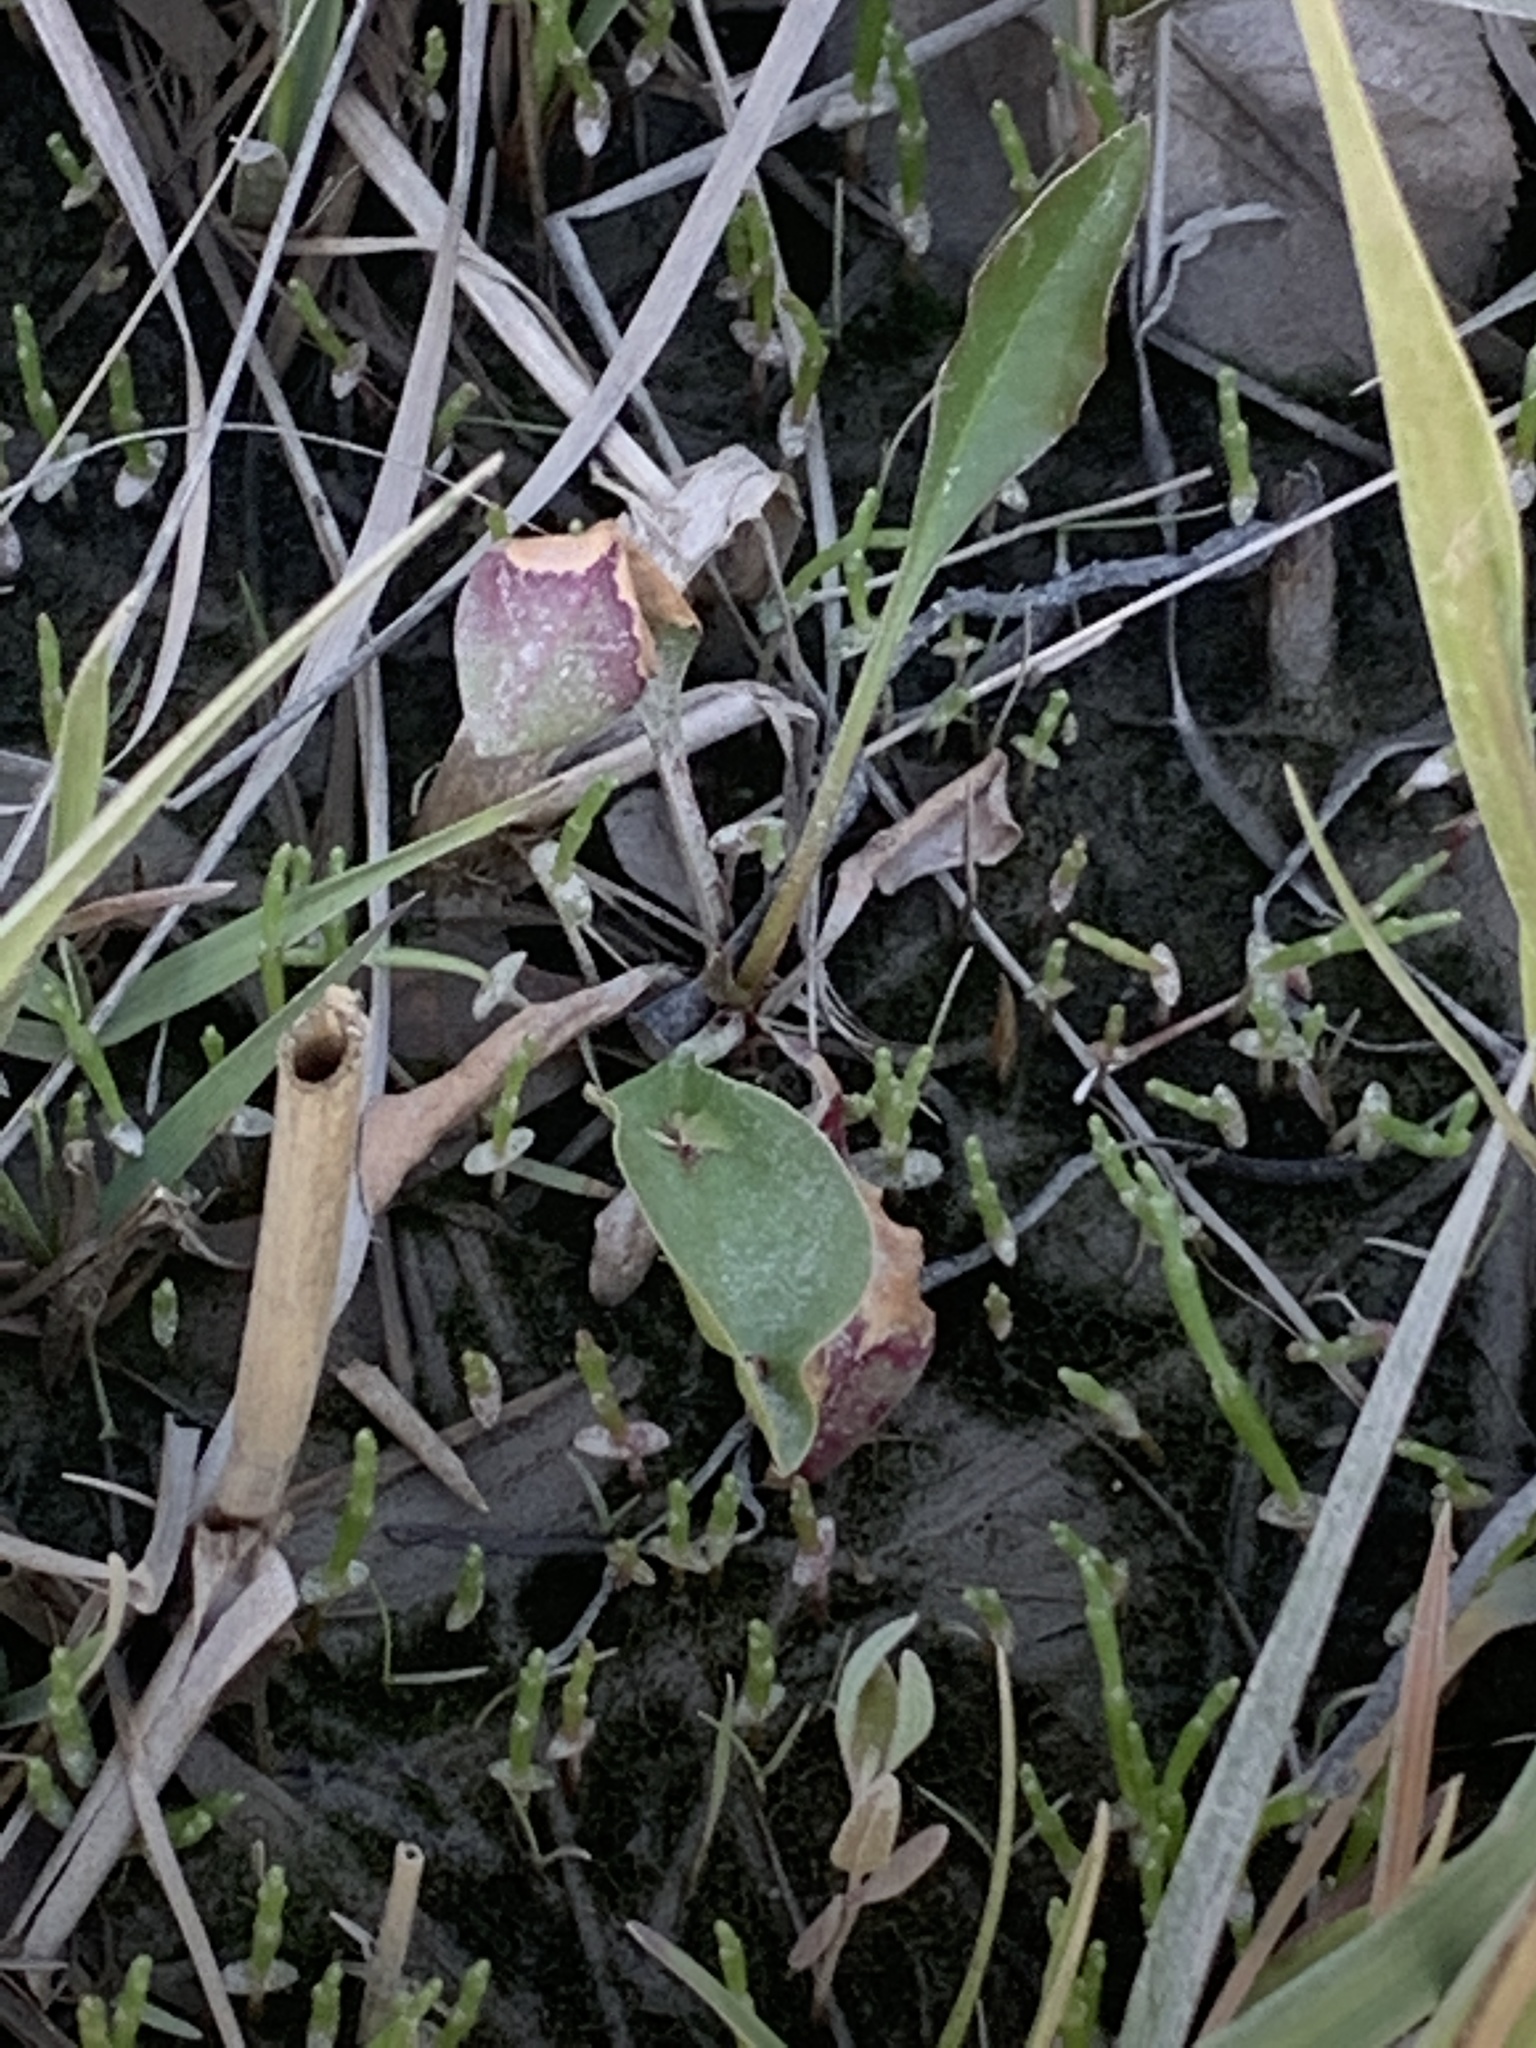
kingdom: Plantae
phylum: Tracheophyta
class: Magnoliopsida
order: Caryophyllales
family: Plumbaginaceae
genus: Limonium
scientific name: Limonium carolinianum
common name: Carolina sea lavender
